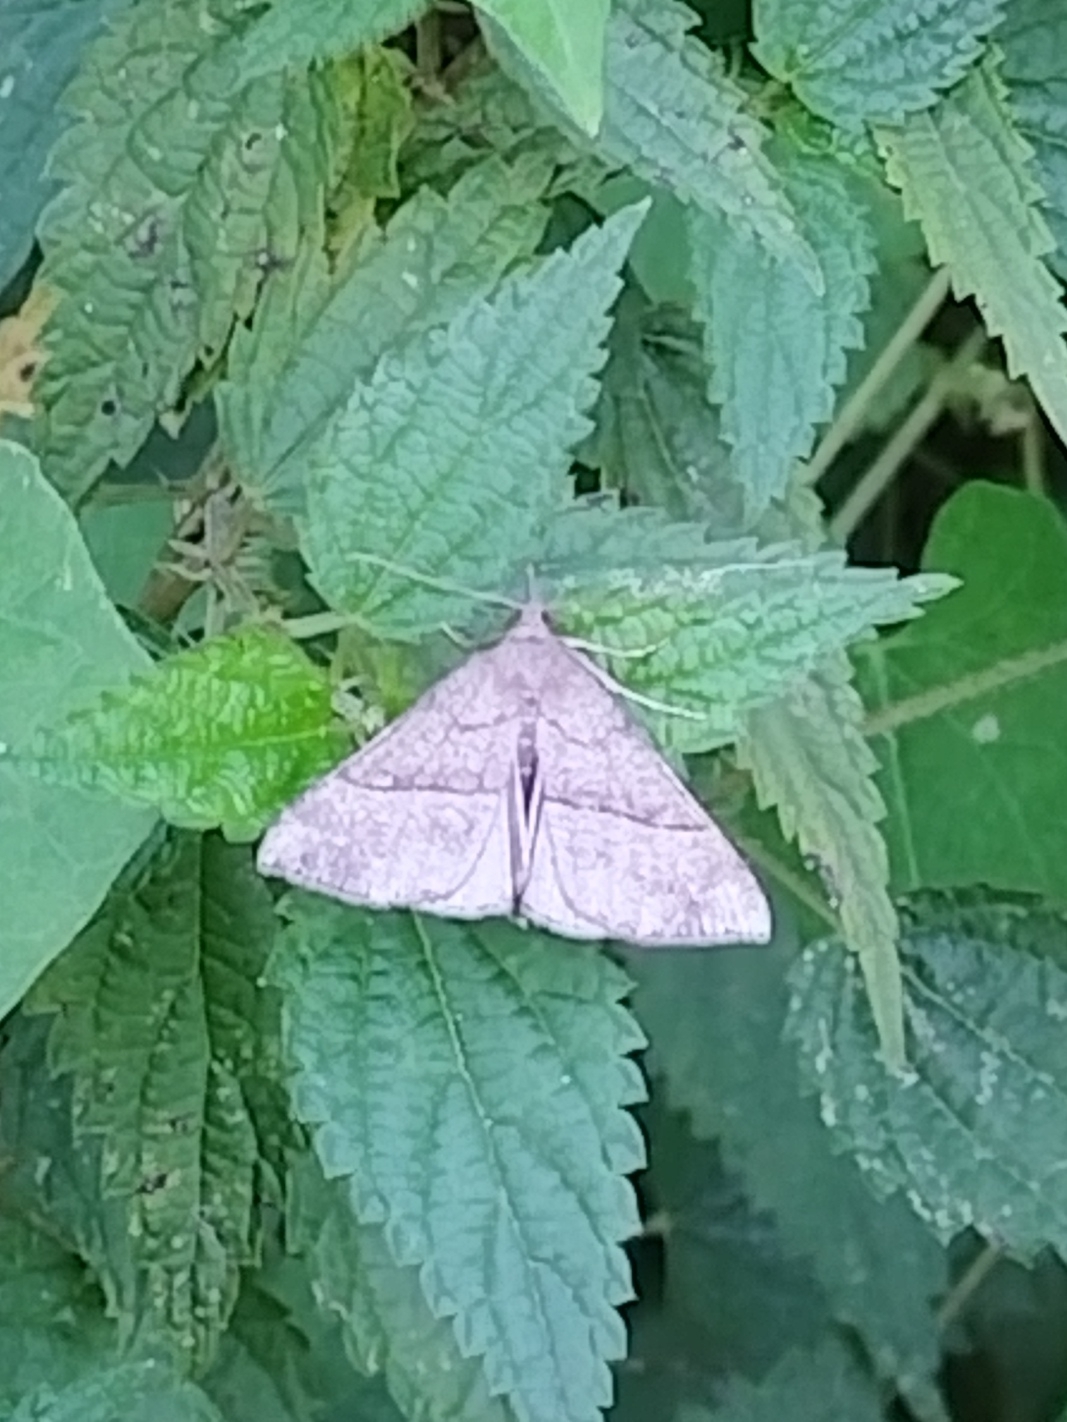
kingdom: Animalia
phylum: Arthropoda
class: Insecta
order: Lepidoptera
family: Erebidae
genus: Hypena
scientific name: Hypena proboscidalis
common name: Snout
